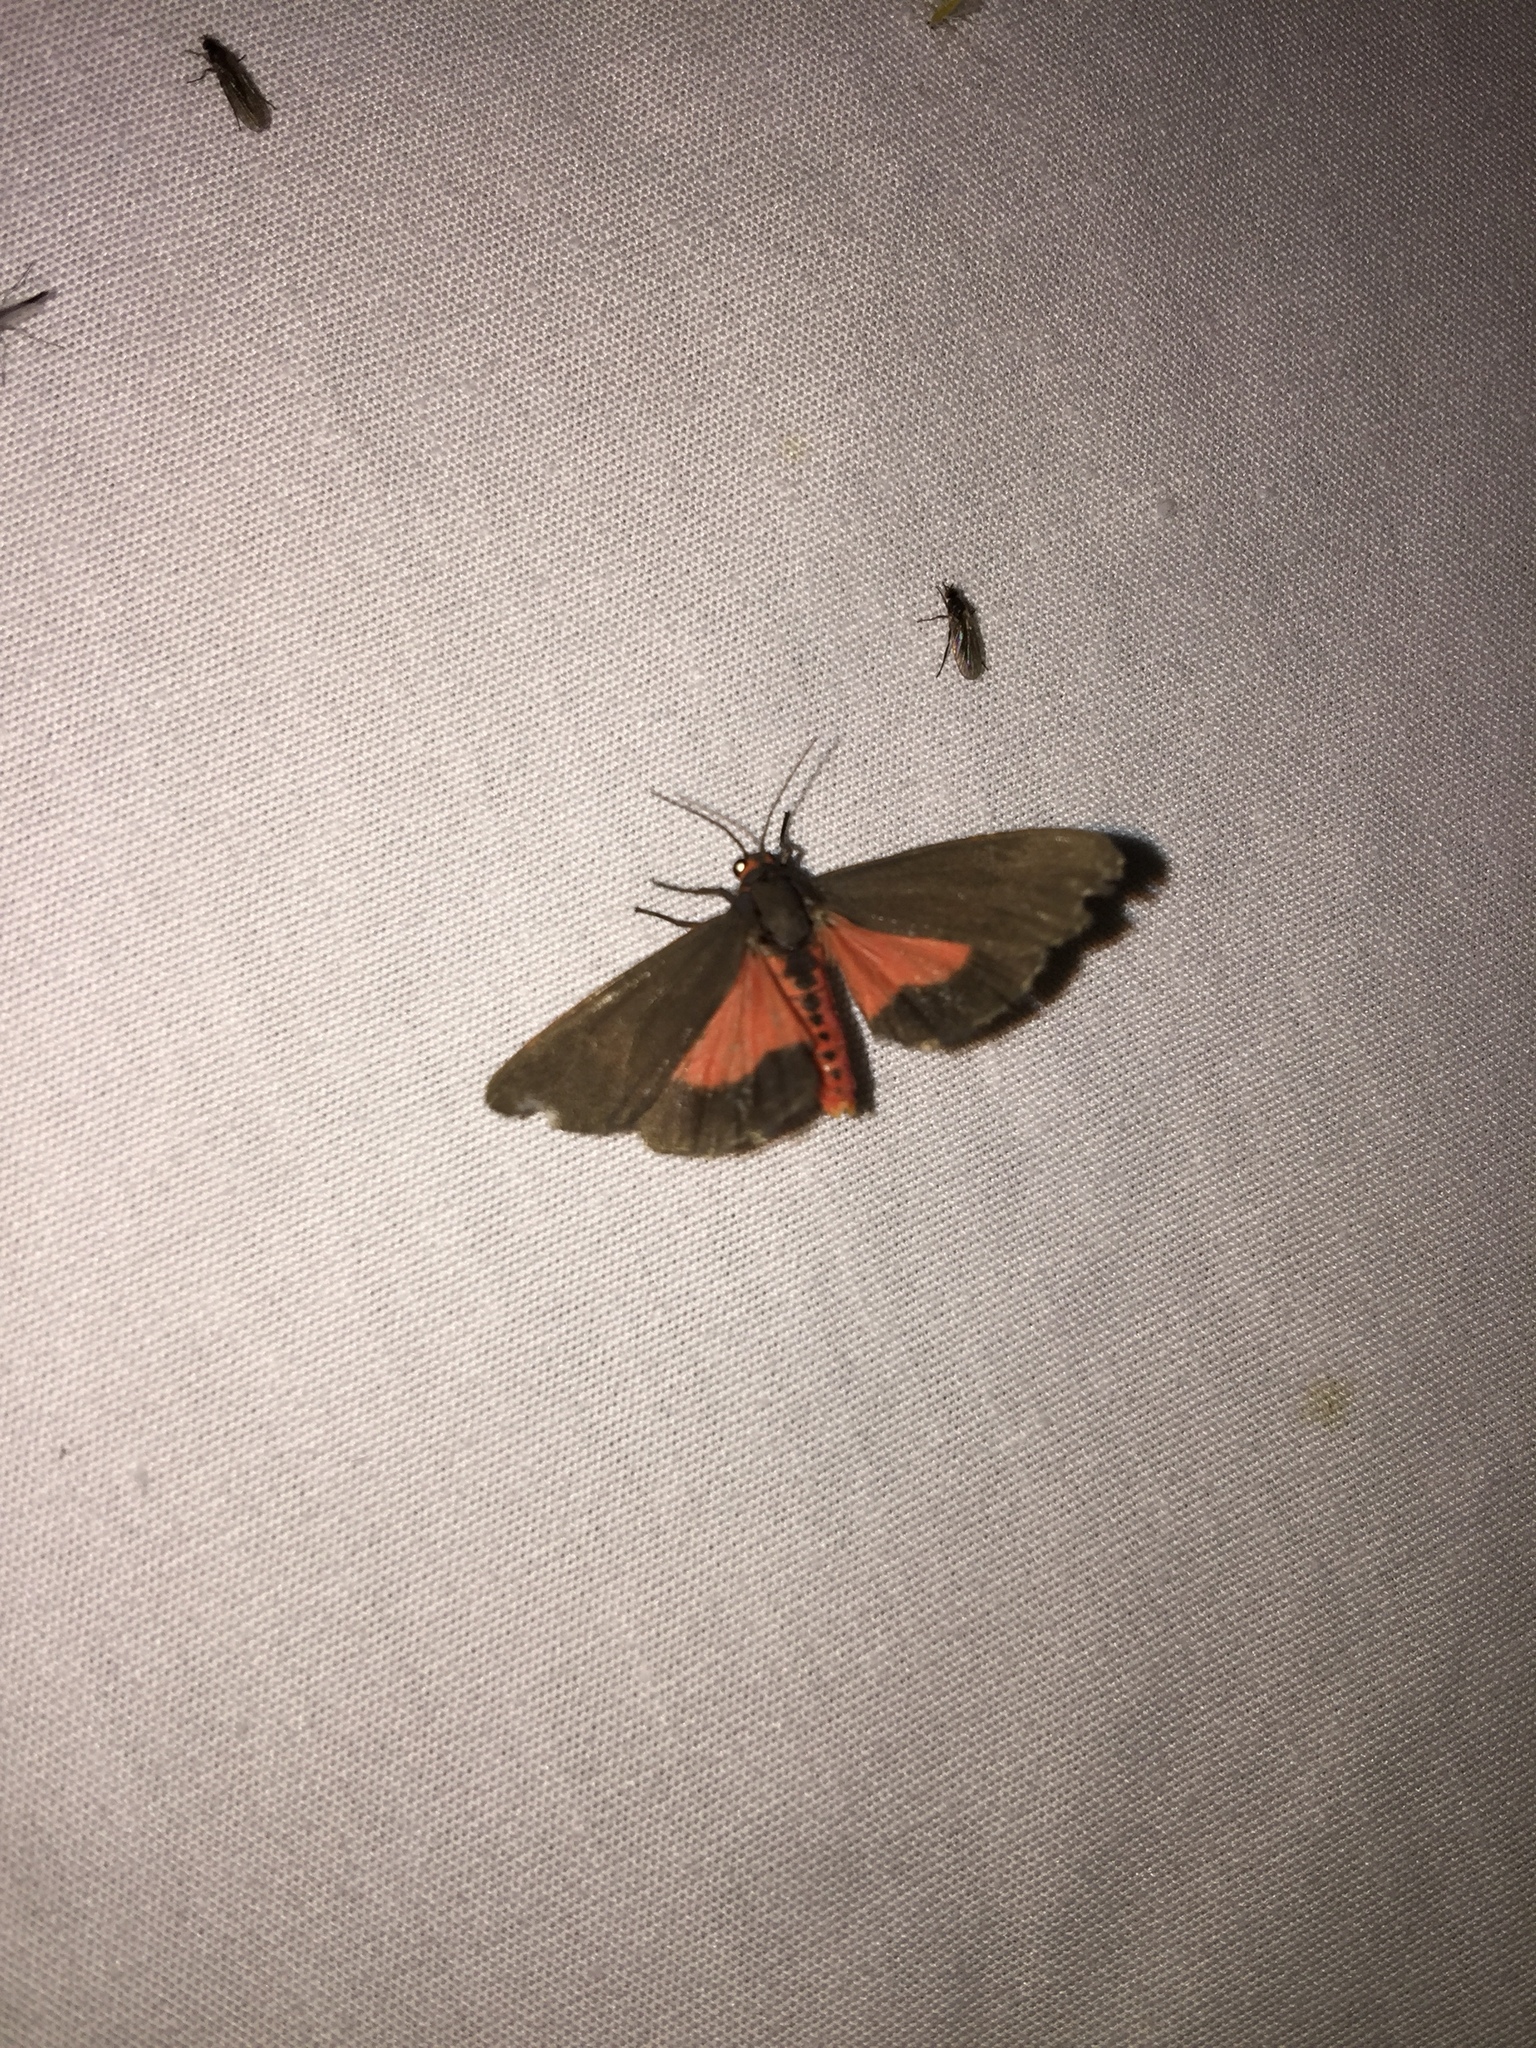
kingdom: Animalia
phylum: Arthropoda
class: Insecta
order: Lepidoptera
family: Erebidae
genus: Virbia
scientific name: Virbia laeta
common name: Joyful holomelina moth
